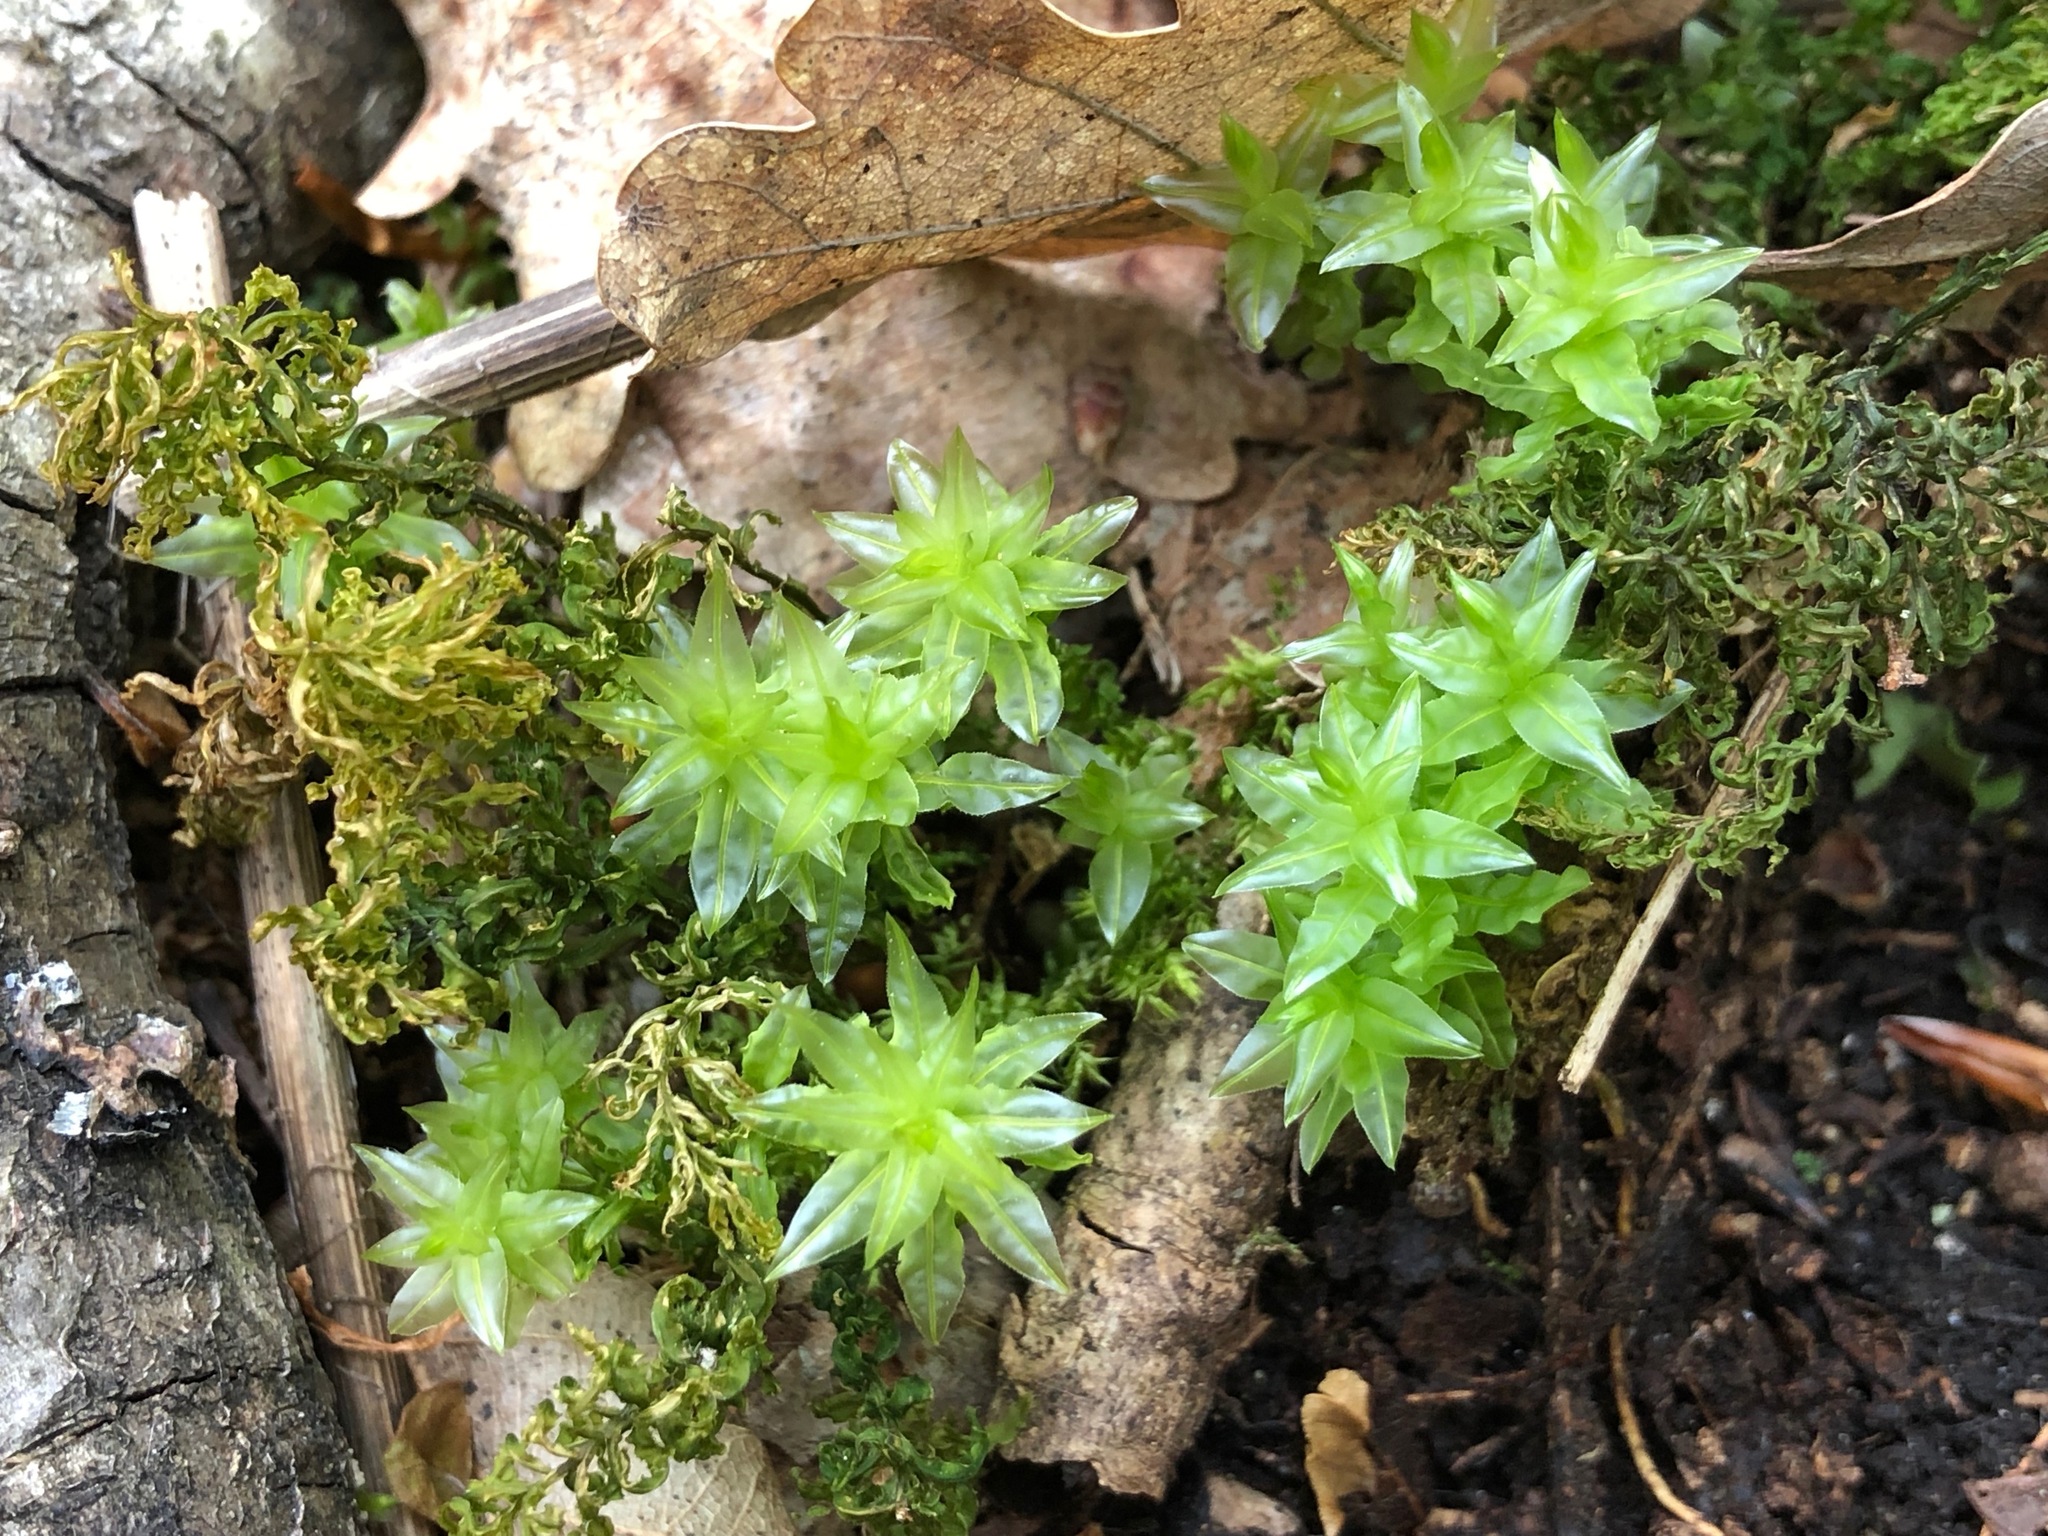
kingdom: Plantae
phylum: Bryophyta
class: Bryopsida
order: Bryales
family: Mniaceae
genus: Mnium
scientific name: Mnium hornum
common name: Swan's-neck leafy moss
